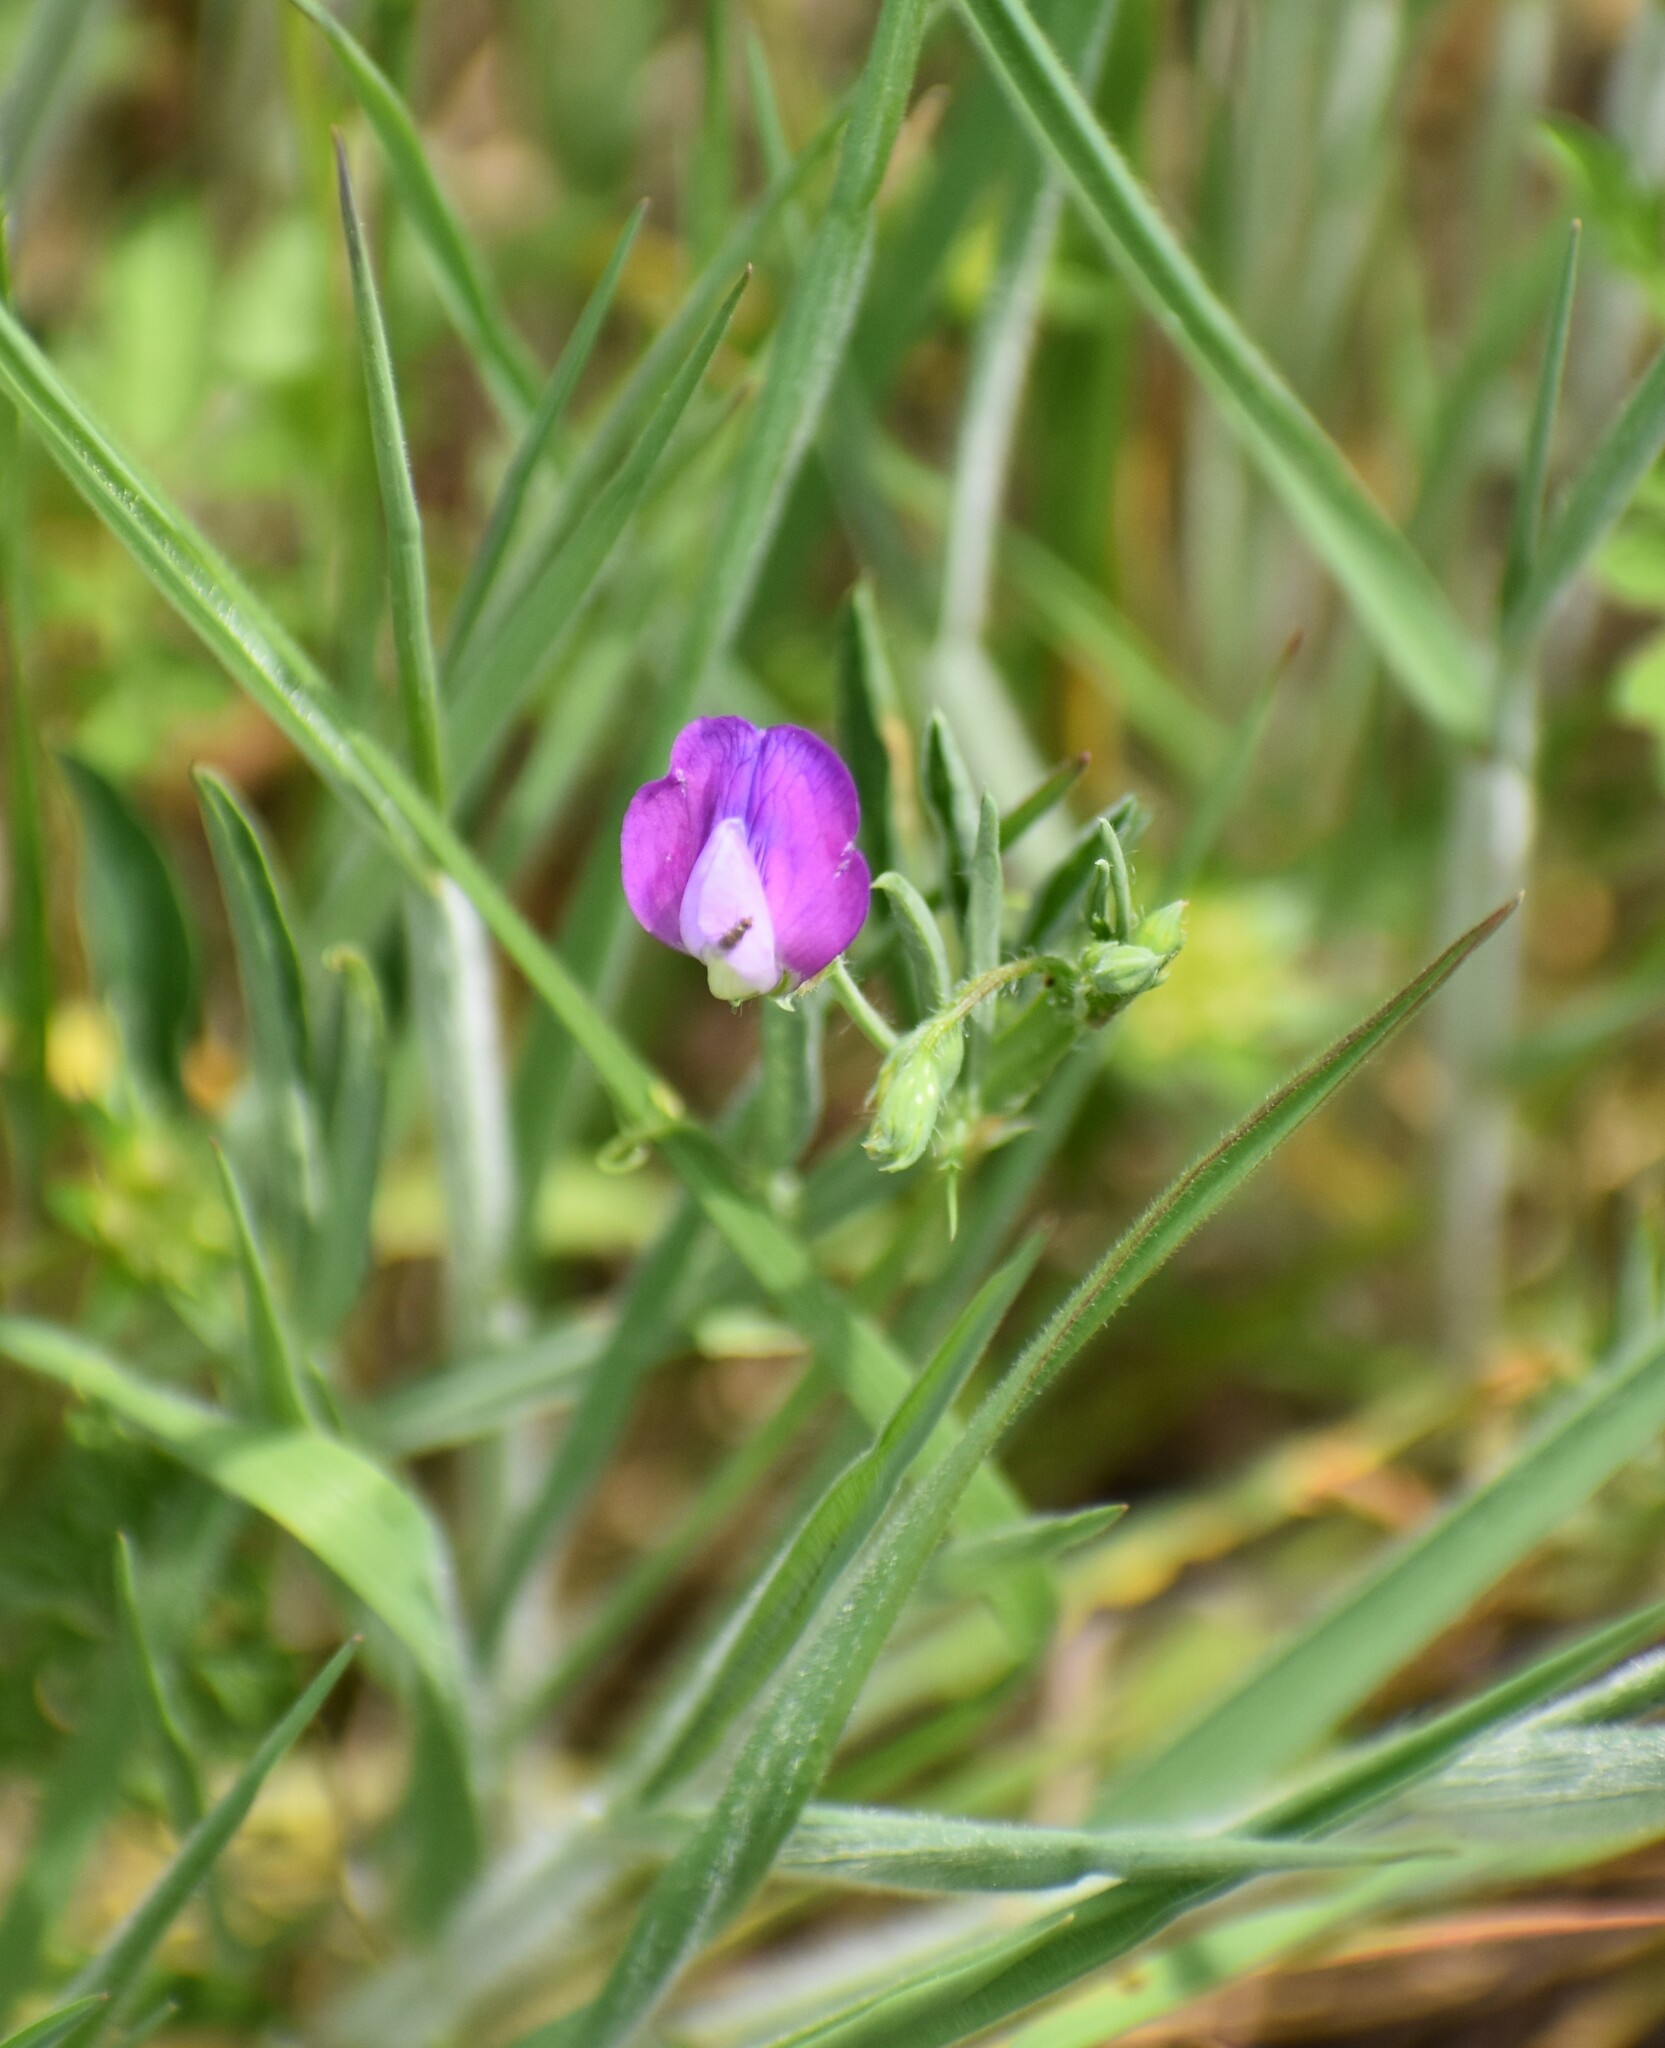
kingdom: Plantae
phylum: Tracheophyta
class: Magnoliopsida
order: Fabales
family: Fabaceae
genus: Lathyrus
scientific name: Lathyrus hirsutus
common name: Hairy vetchling
